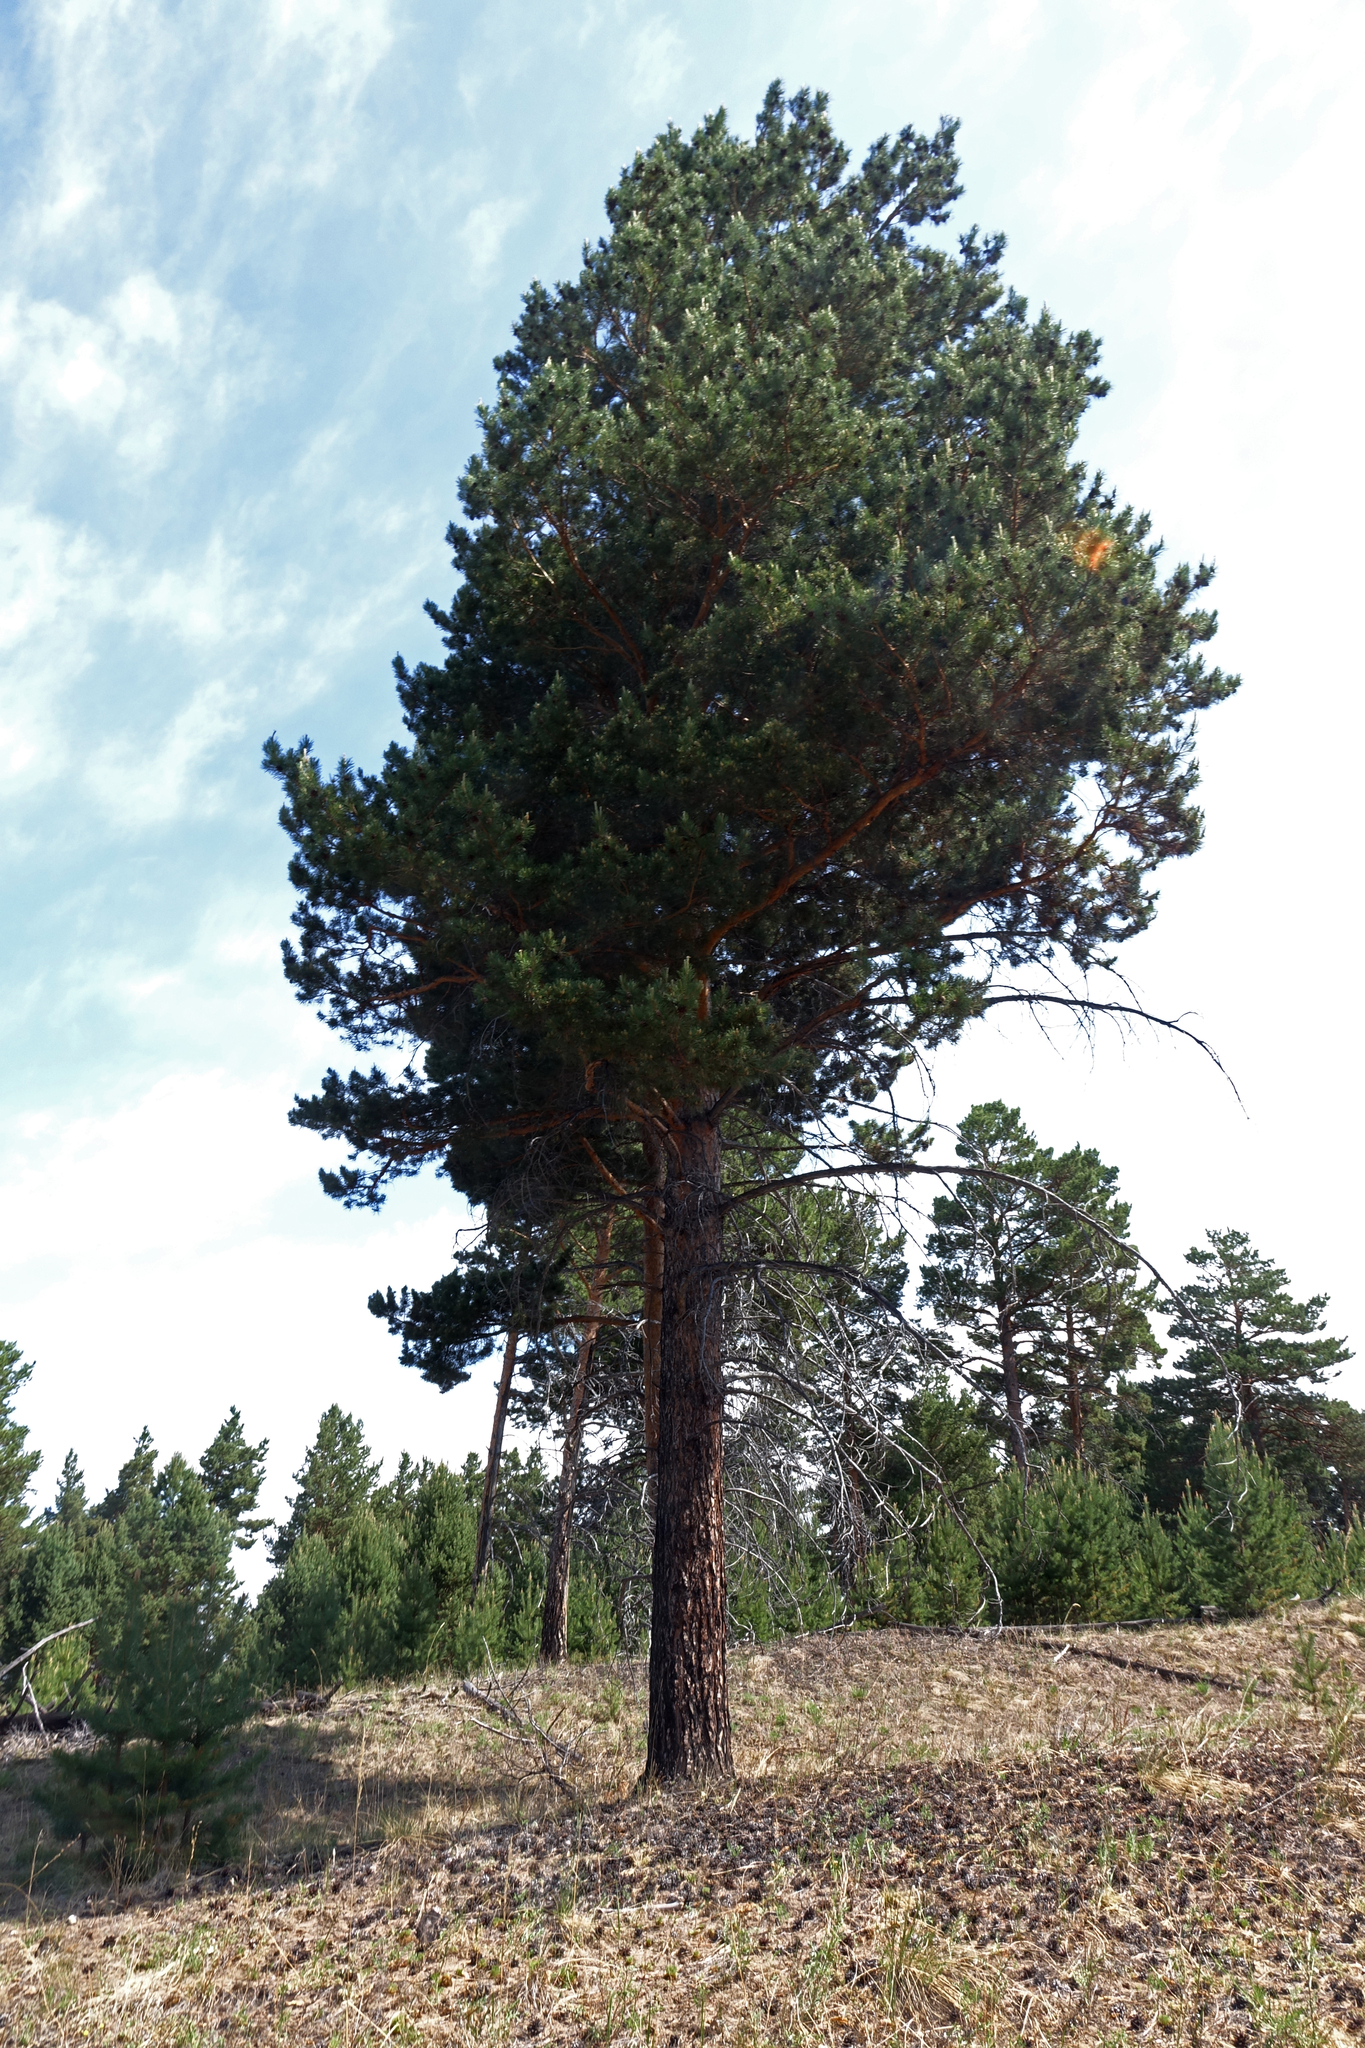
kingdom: Plantae
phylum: Tracheophyta
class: Pinopsida
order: Pinales
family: Pinaceae
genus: Pinus
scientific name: Pinus sylvestris
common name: Scots pine
